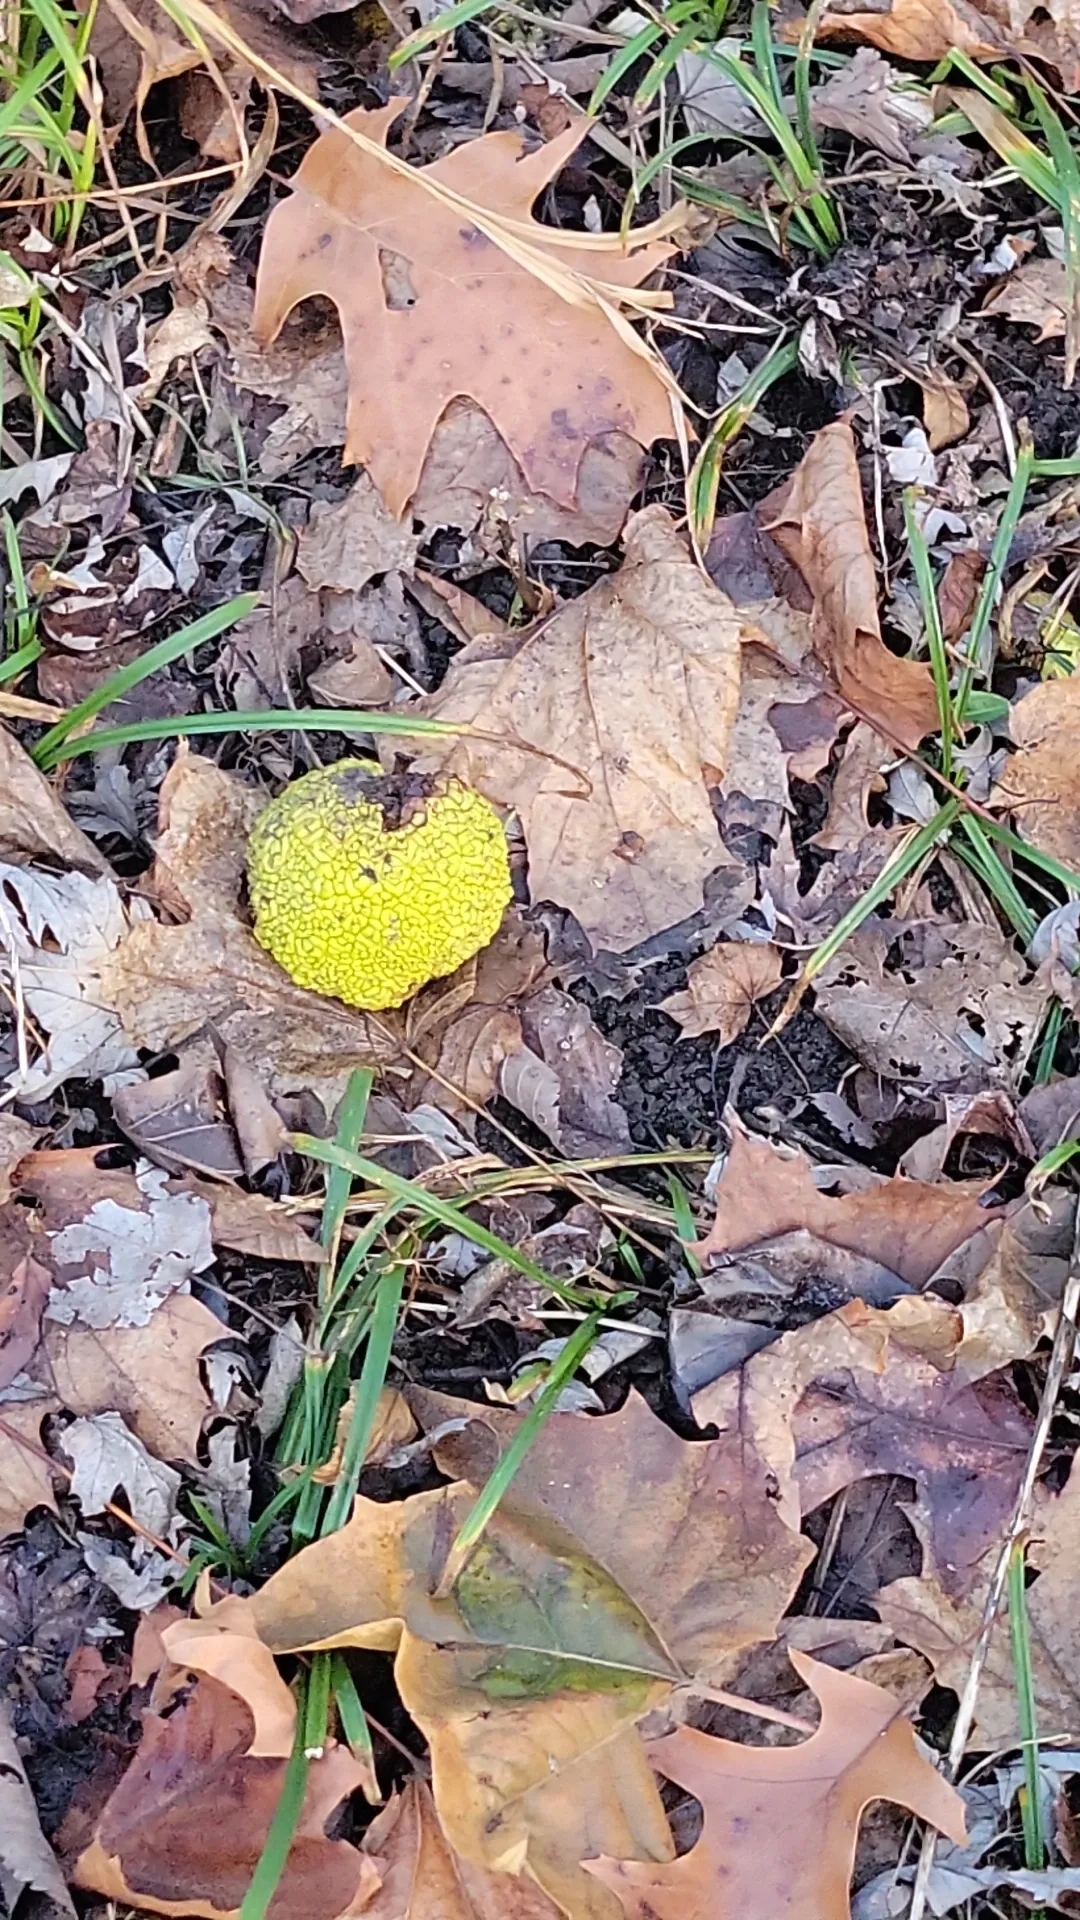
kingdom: Plantae
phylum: Tracheophyta
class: Magnoliopsida
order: Rosales
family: Moraceae
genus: Maclura
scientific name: Maclura pomifera
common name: Osage-orange
